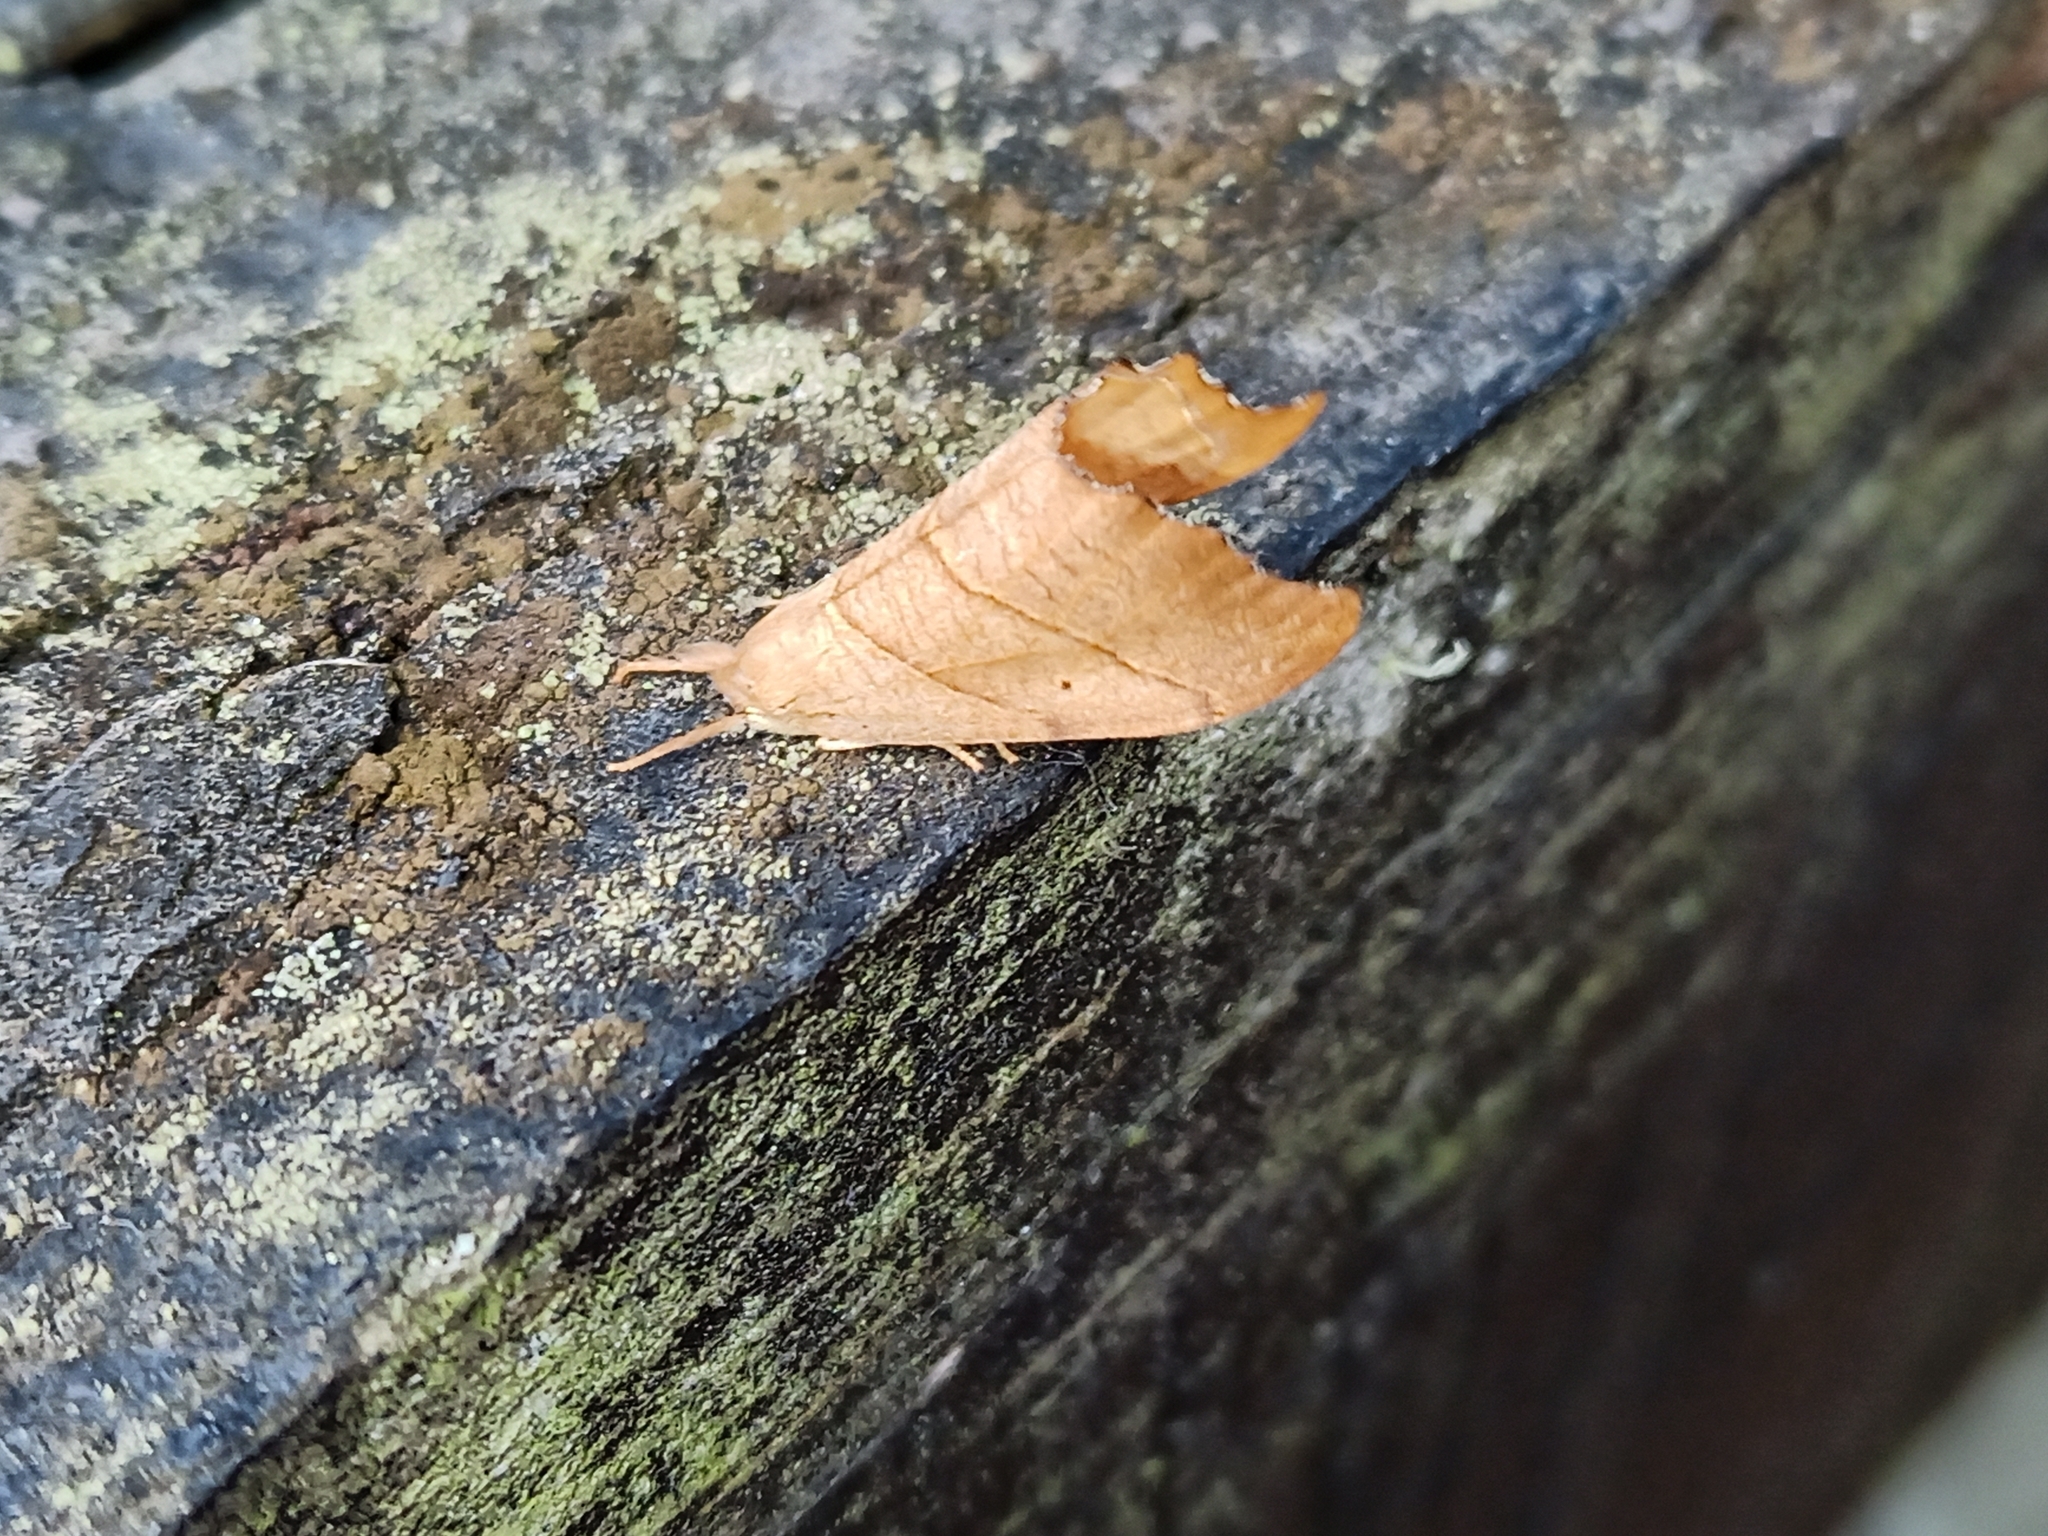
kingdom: Animalia
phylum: Arthropoda
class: Insecta
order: Lepidoptera
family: Drepanidae
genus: Falcaria
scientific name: Falcaria lacertinaria
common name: Scalloped hook-tip
